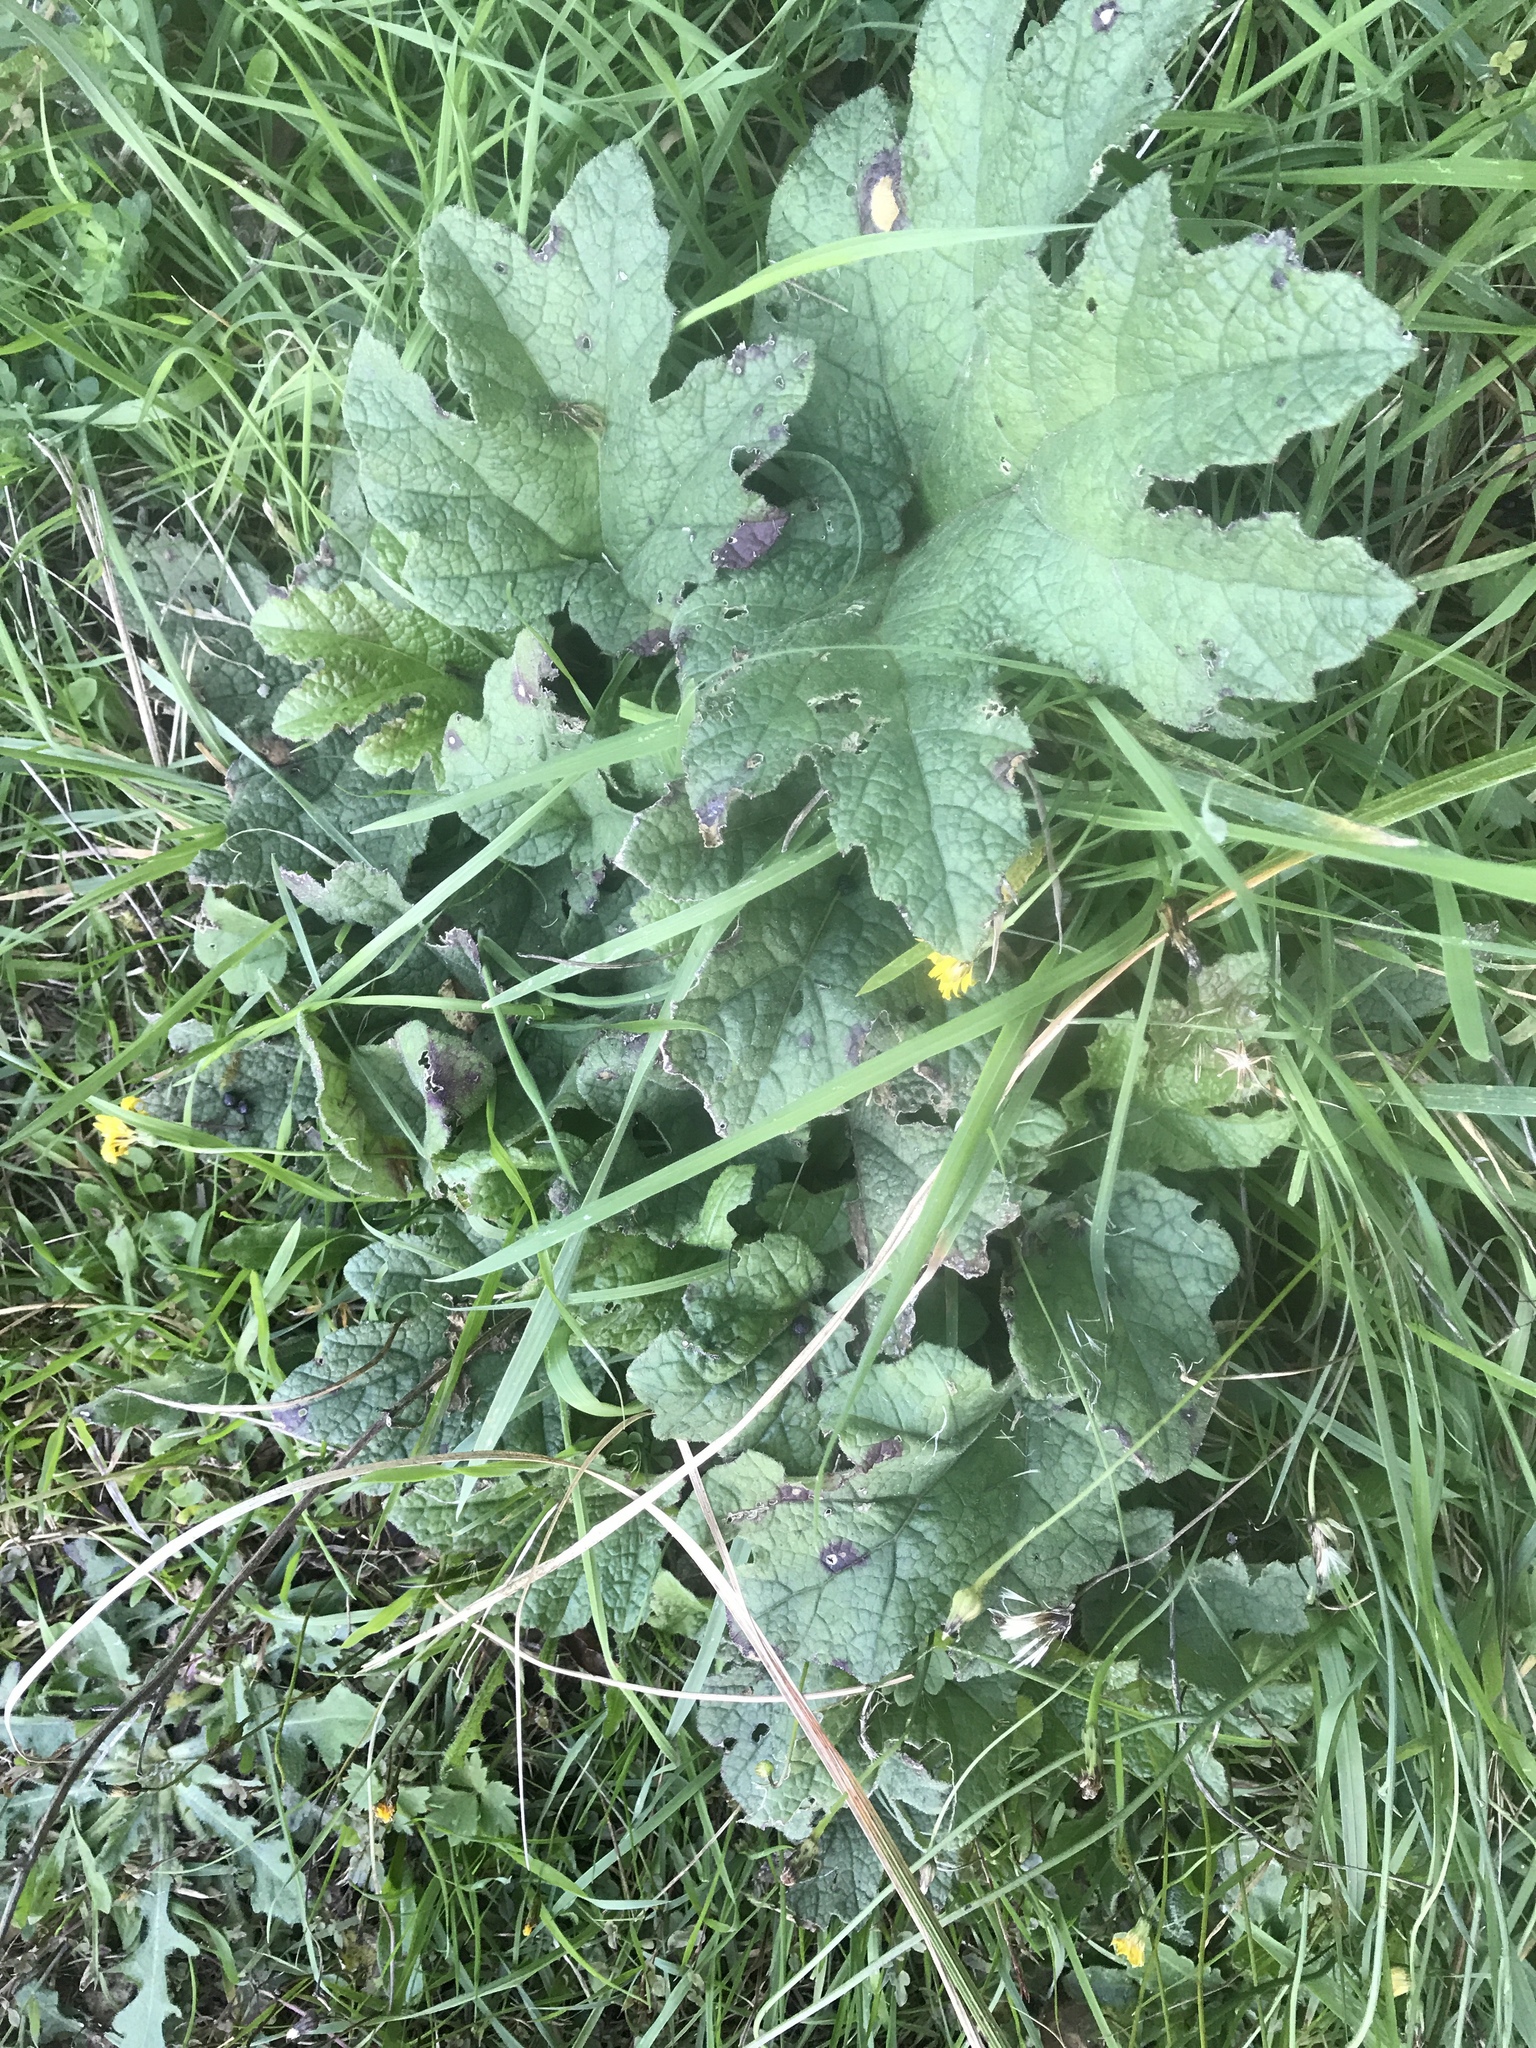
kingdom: Plantae
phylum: Tracheophyta
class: Magnoliopsida
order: Gunnerales
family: Gunneraceae
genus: Gunnera
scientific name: Gunnera tinctoria
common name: Giant-rhubarb
